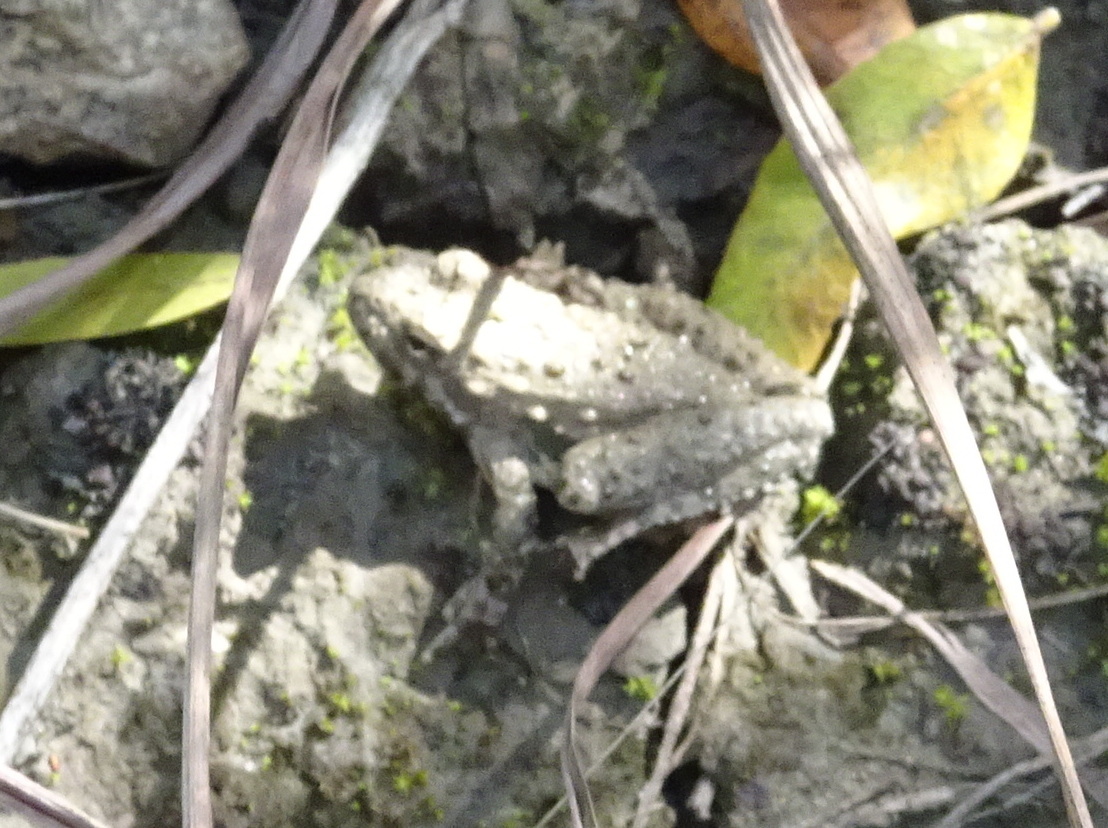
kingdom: Animalia
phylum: Chordata
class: Amphibia
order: Anura
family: Hylidae
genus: Acris
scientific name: Acris blanchardi
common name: Blanchard's cricket frog
